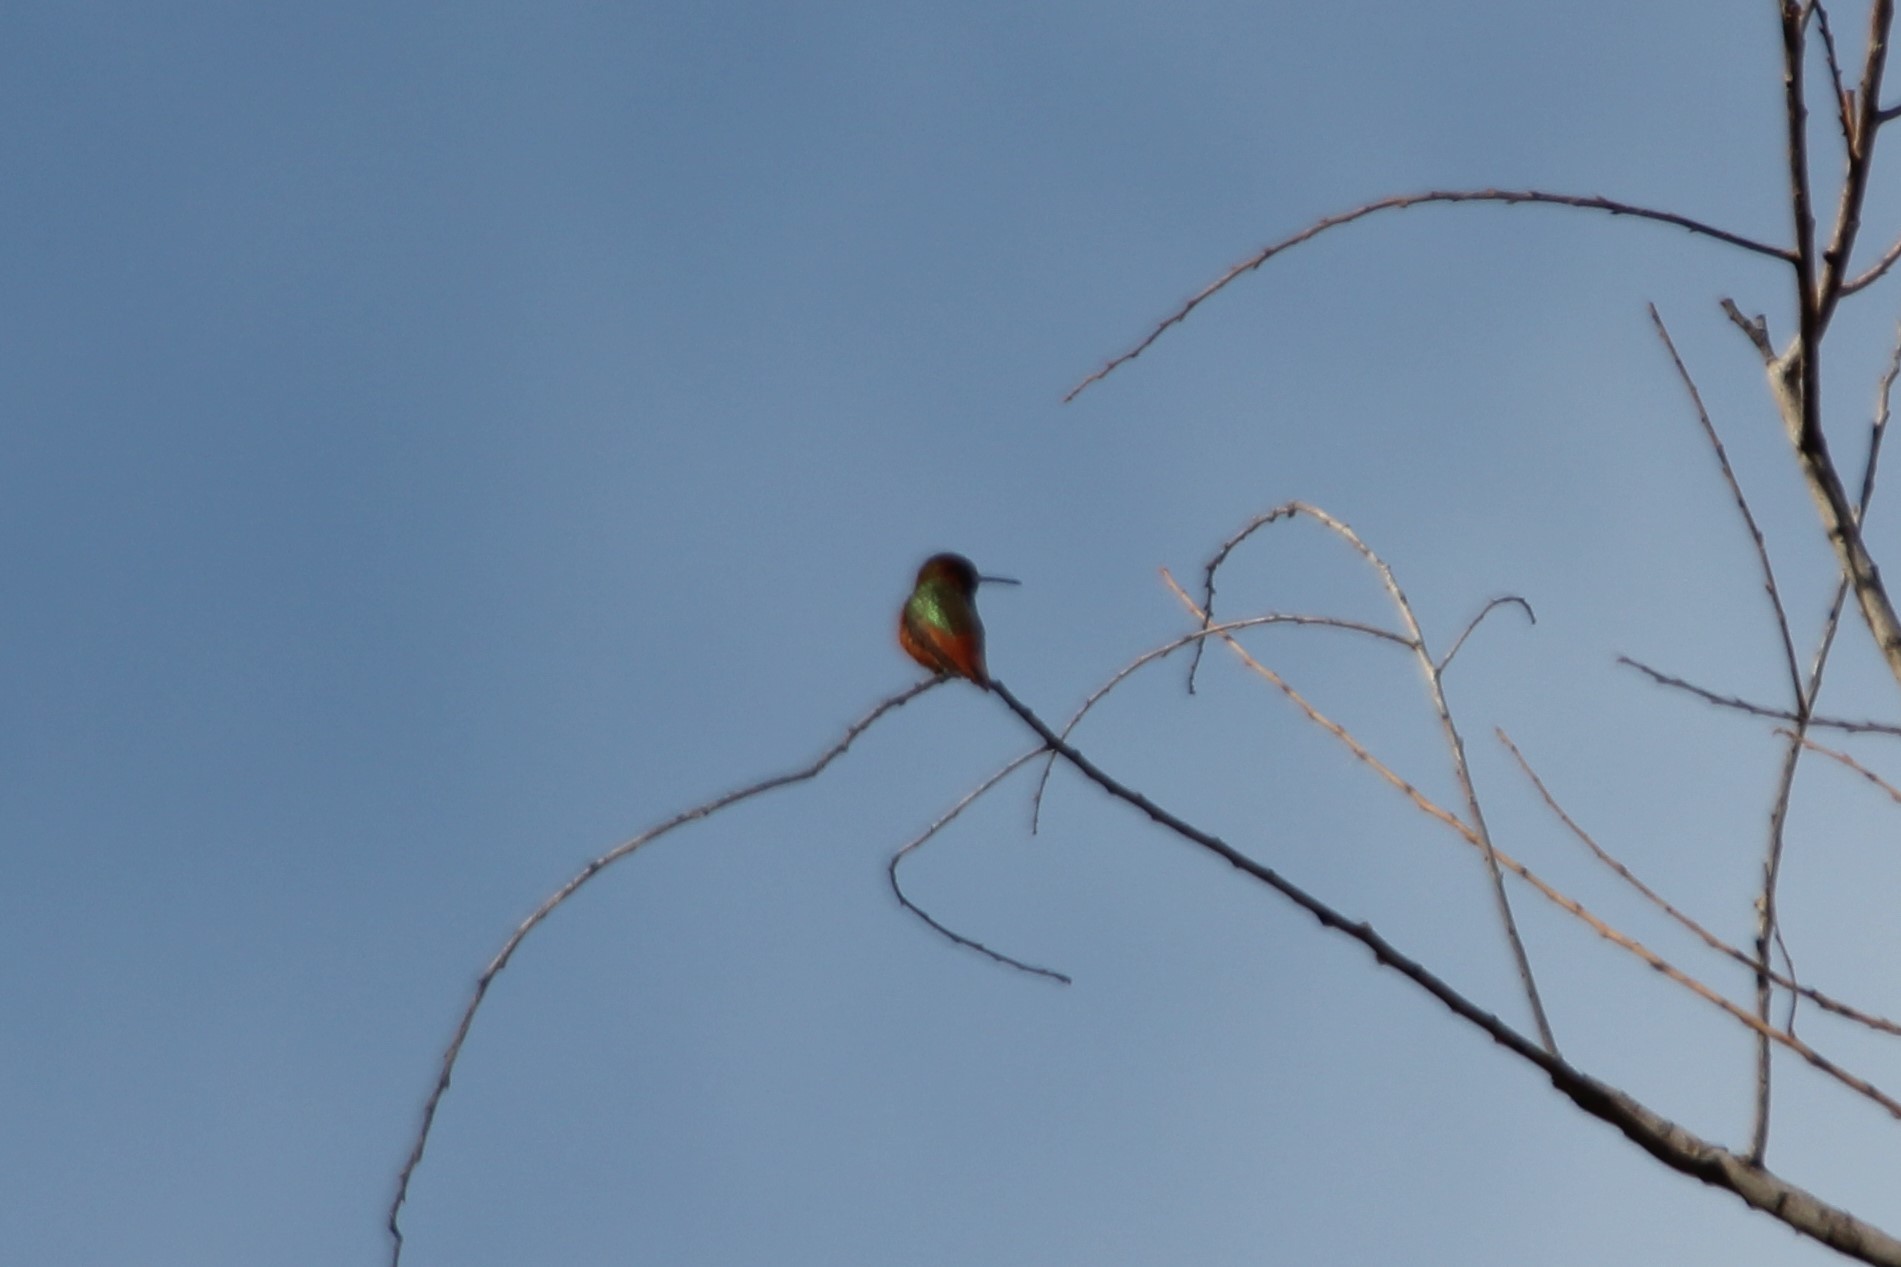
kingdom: Animalia
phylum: Chordata
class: Aves
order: Apodiformes
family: Trochilidae
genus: Selasphorus
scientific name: Selasphorus sasin
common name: Allen's hummingbird
